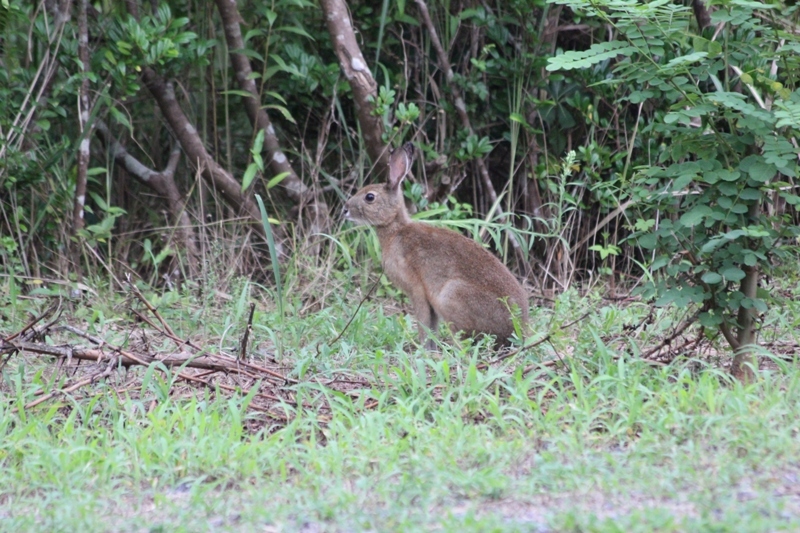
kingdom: Animalia
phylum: Chordata
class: Mammalia
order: Lagomorpha
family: Leporidae
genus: Lepus
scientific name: Lepus brachyurus
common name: Japanese hare
